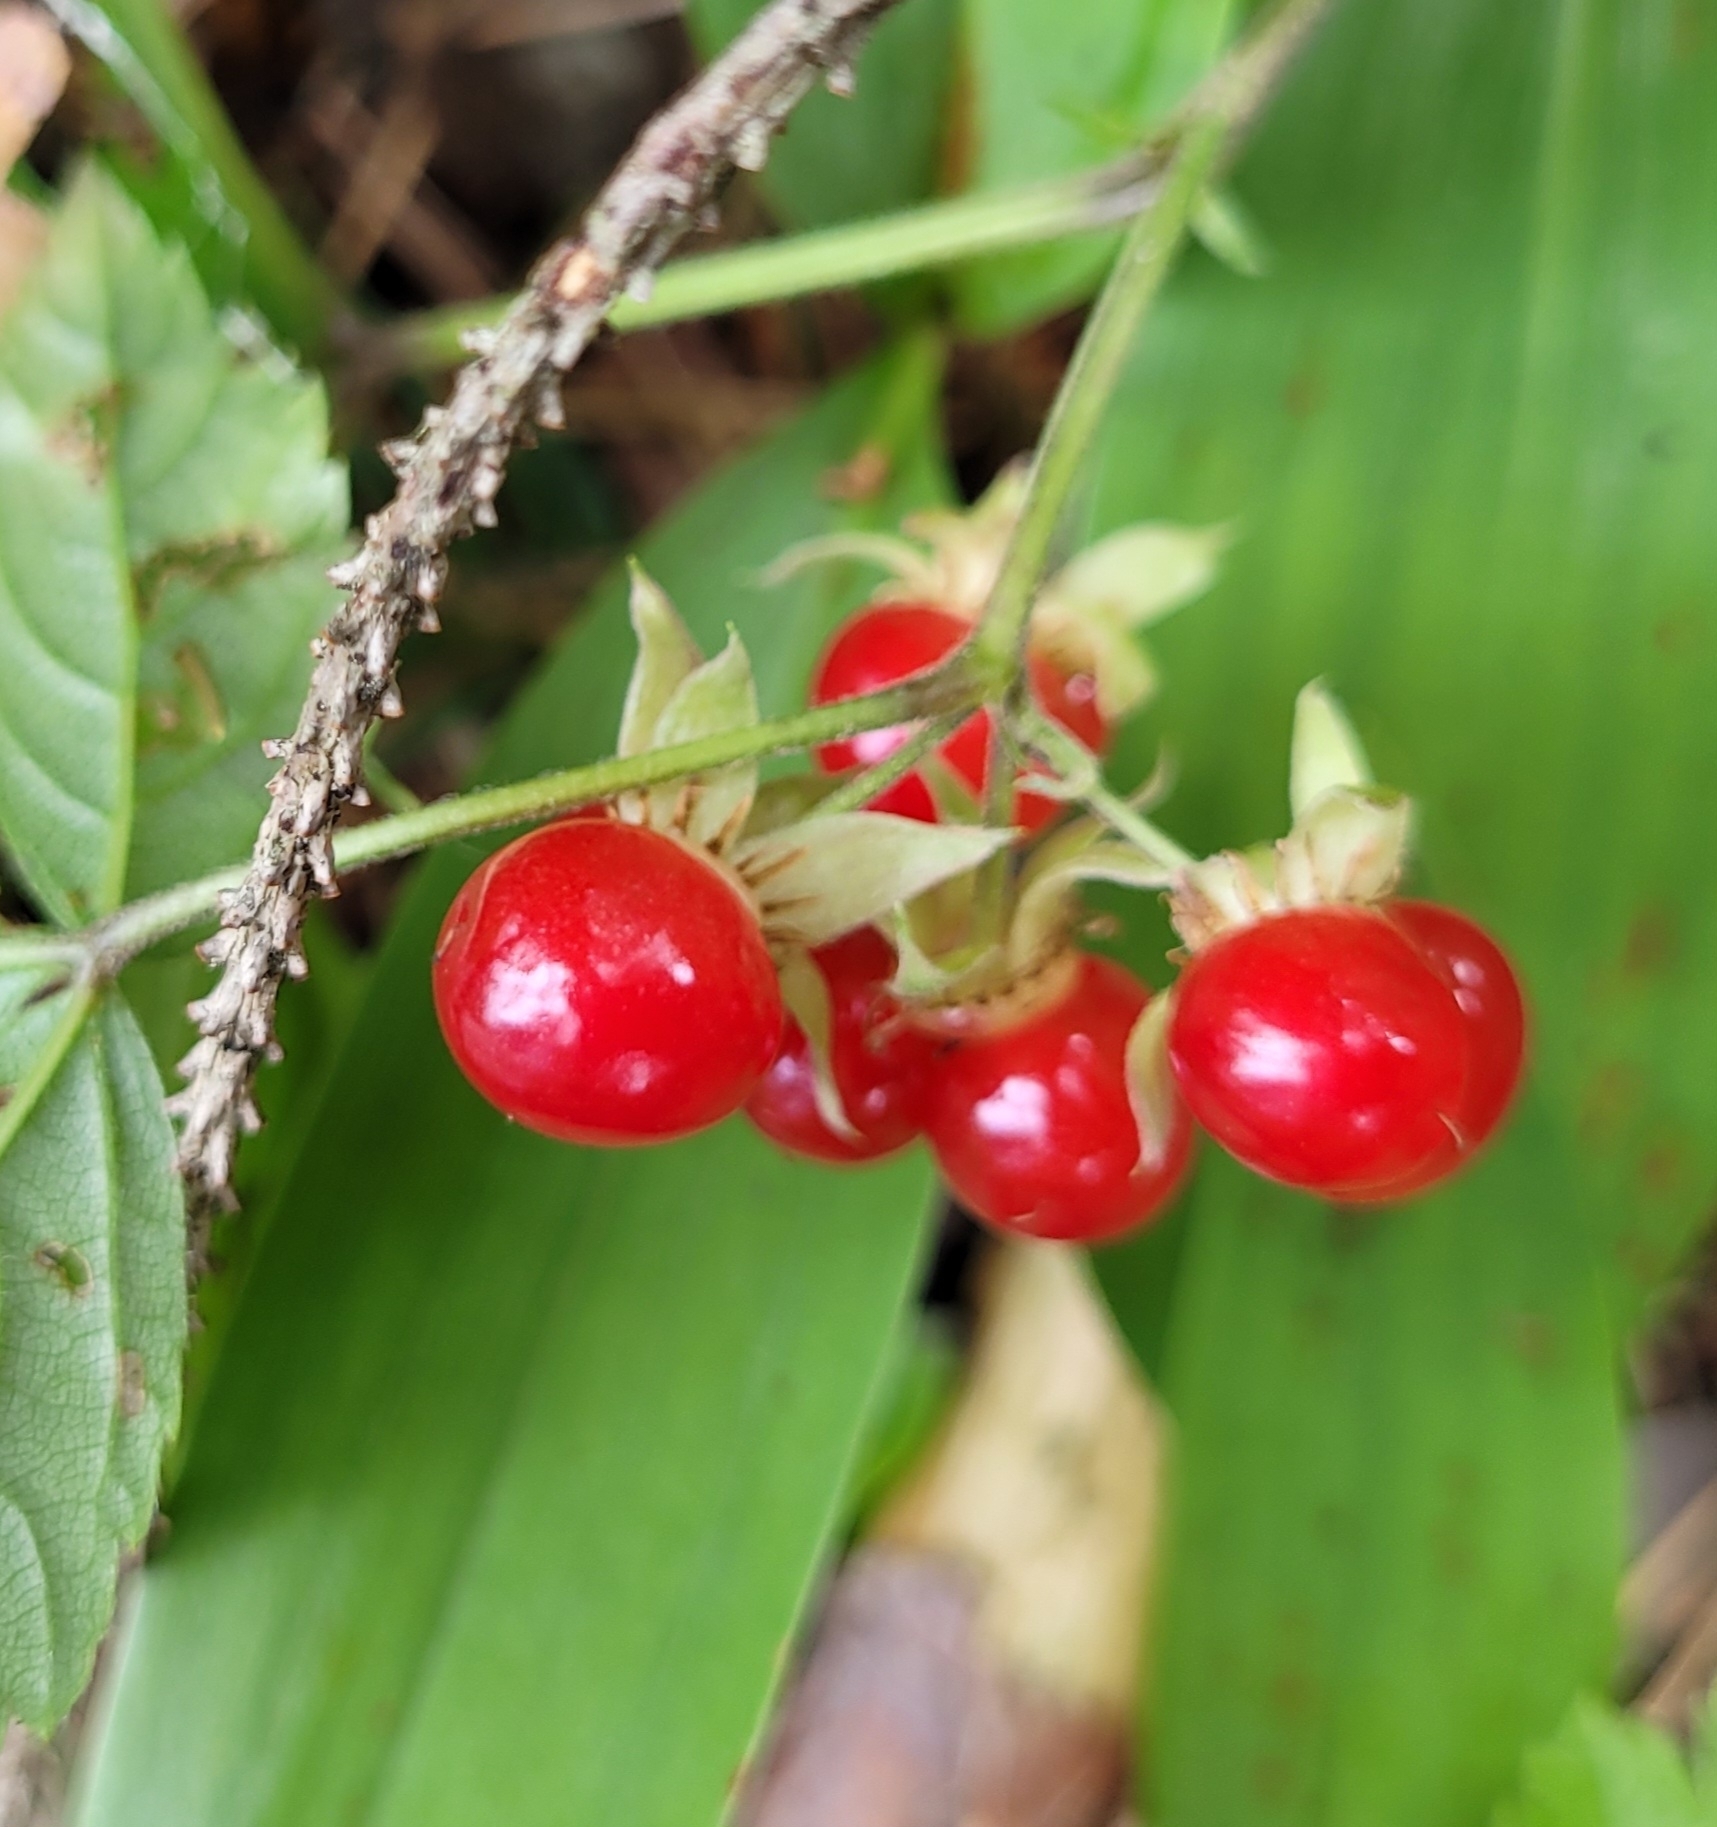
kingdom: Plantae
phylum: Tracheophyta
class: Magnoliopsida
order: Rosales
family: Rosaceae
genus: Rubus
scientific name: Rubus saxatilis
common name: Stone bramble
